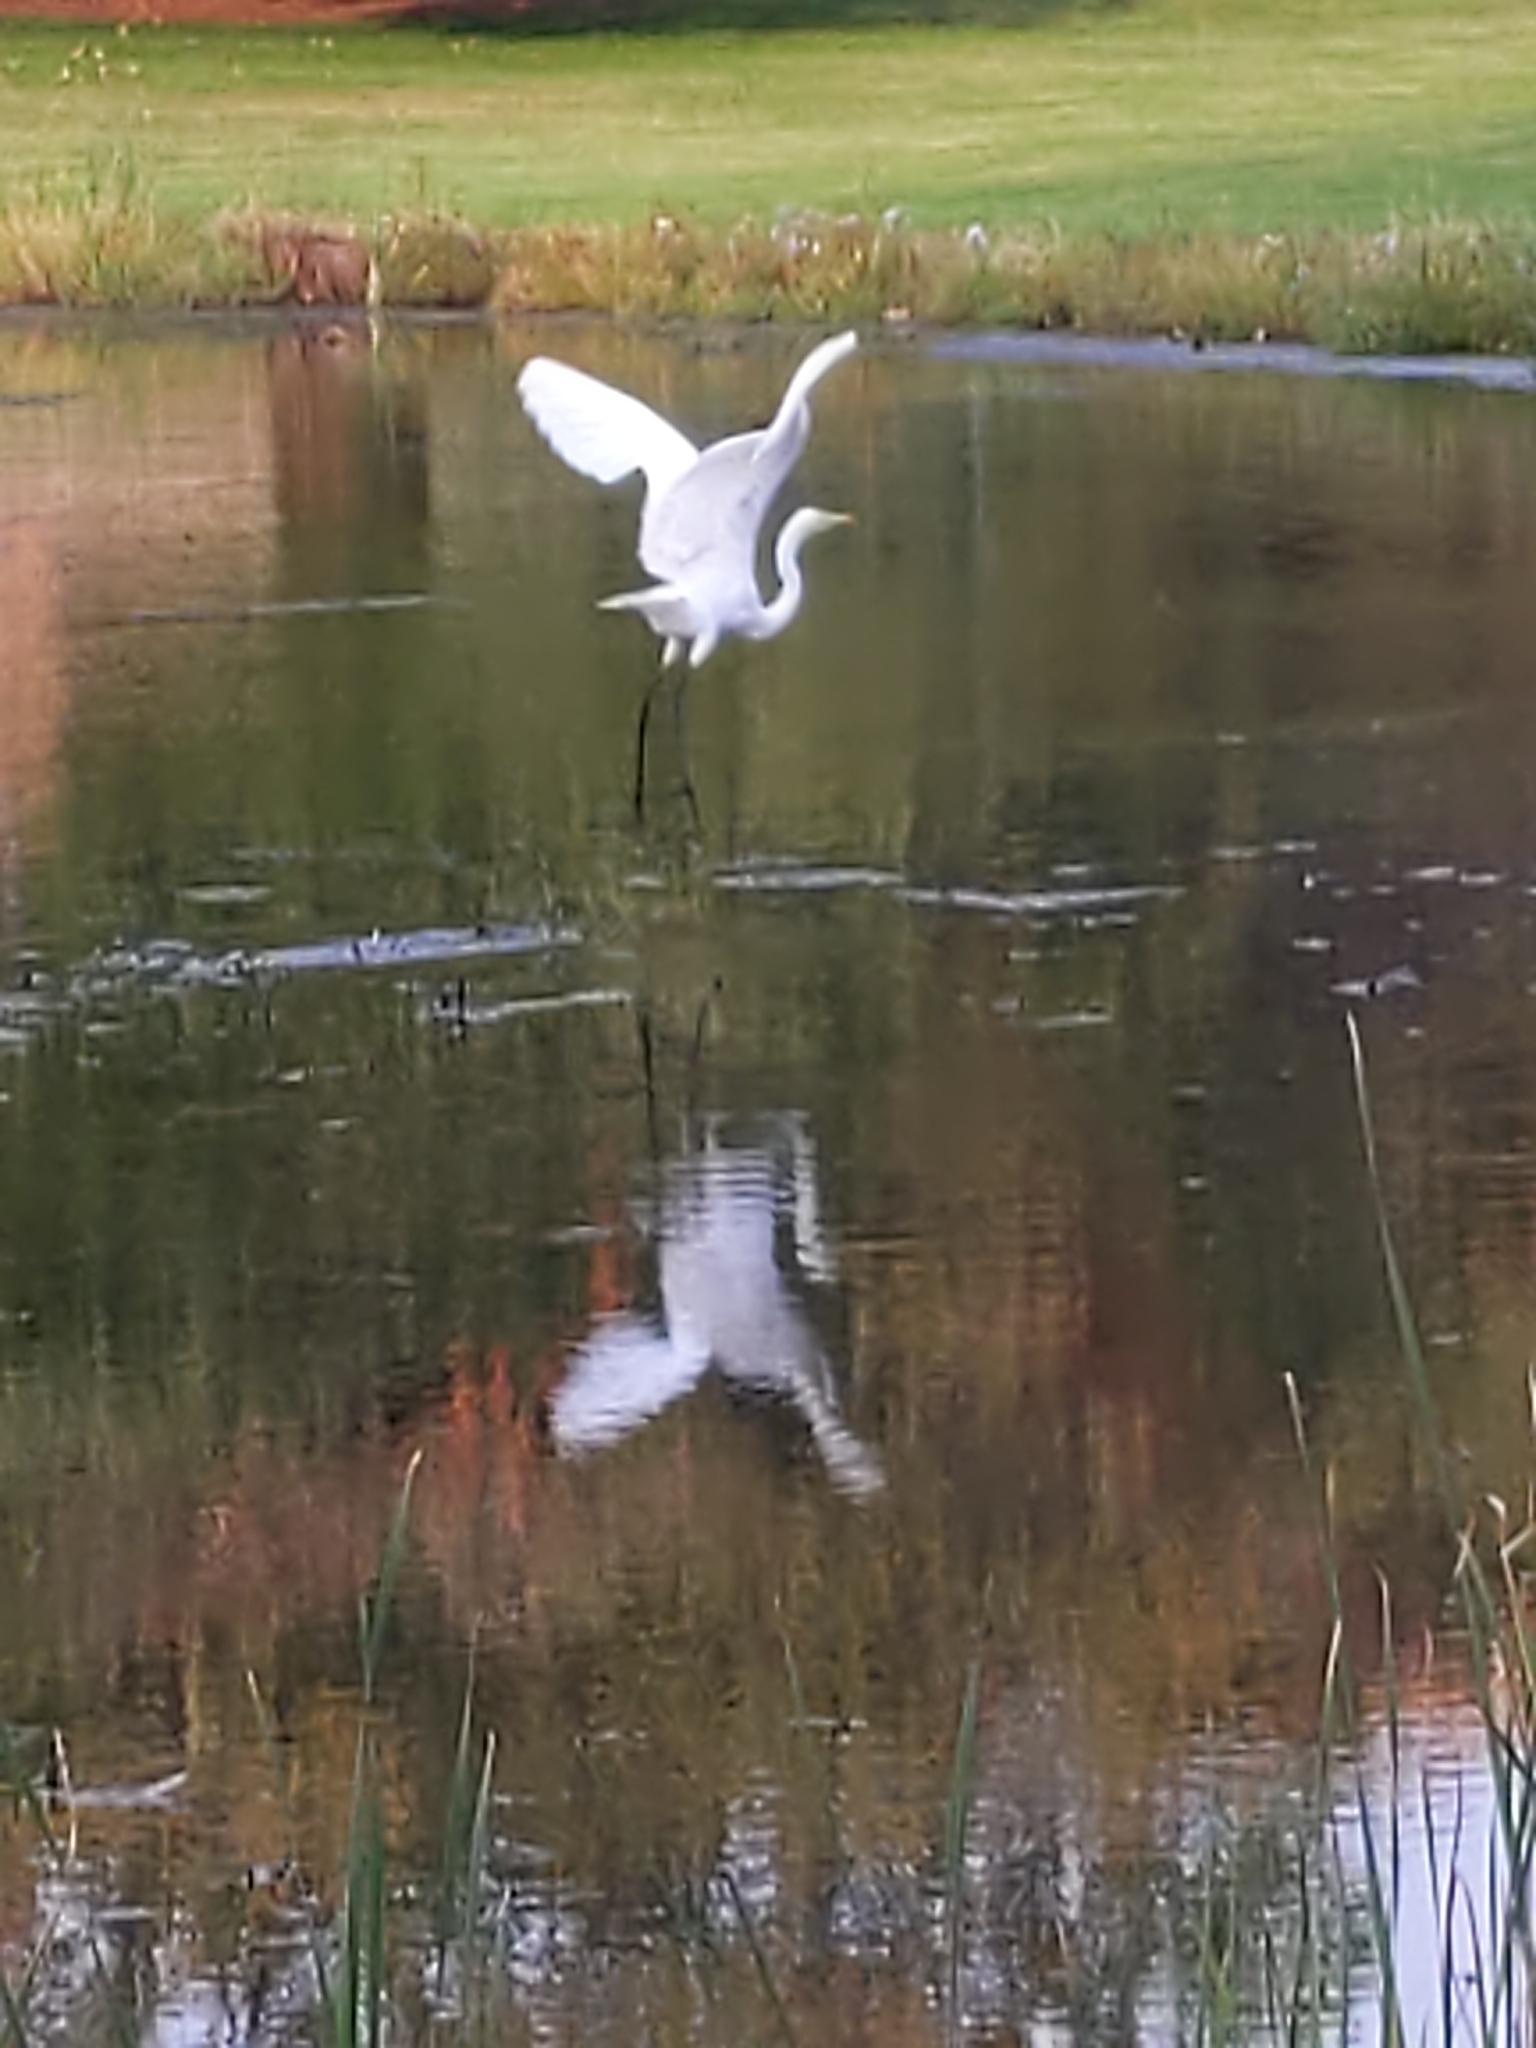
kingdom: Animalia
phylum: Chordata
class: Aves
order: Pelecaniformes
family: Ardeidae
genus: Ardea
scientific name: Ardea alba
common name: Great egret
